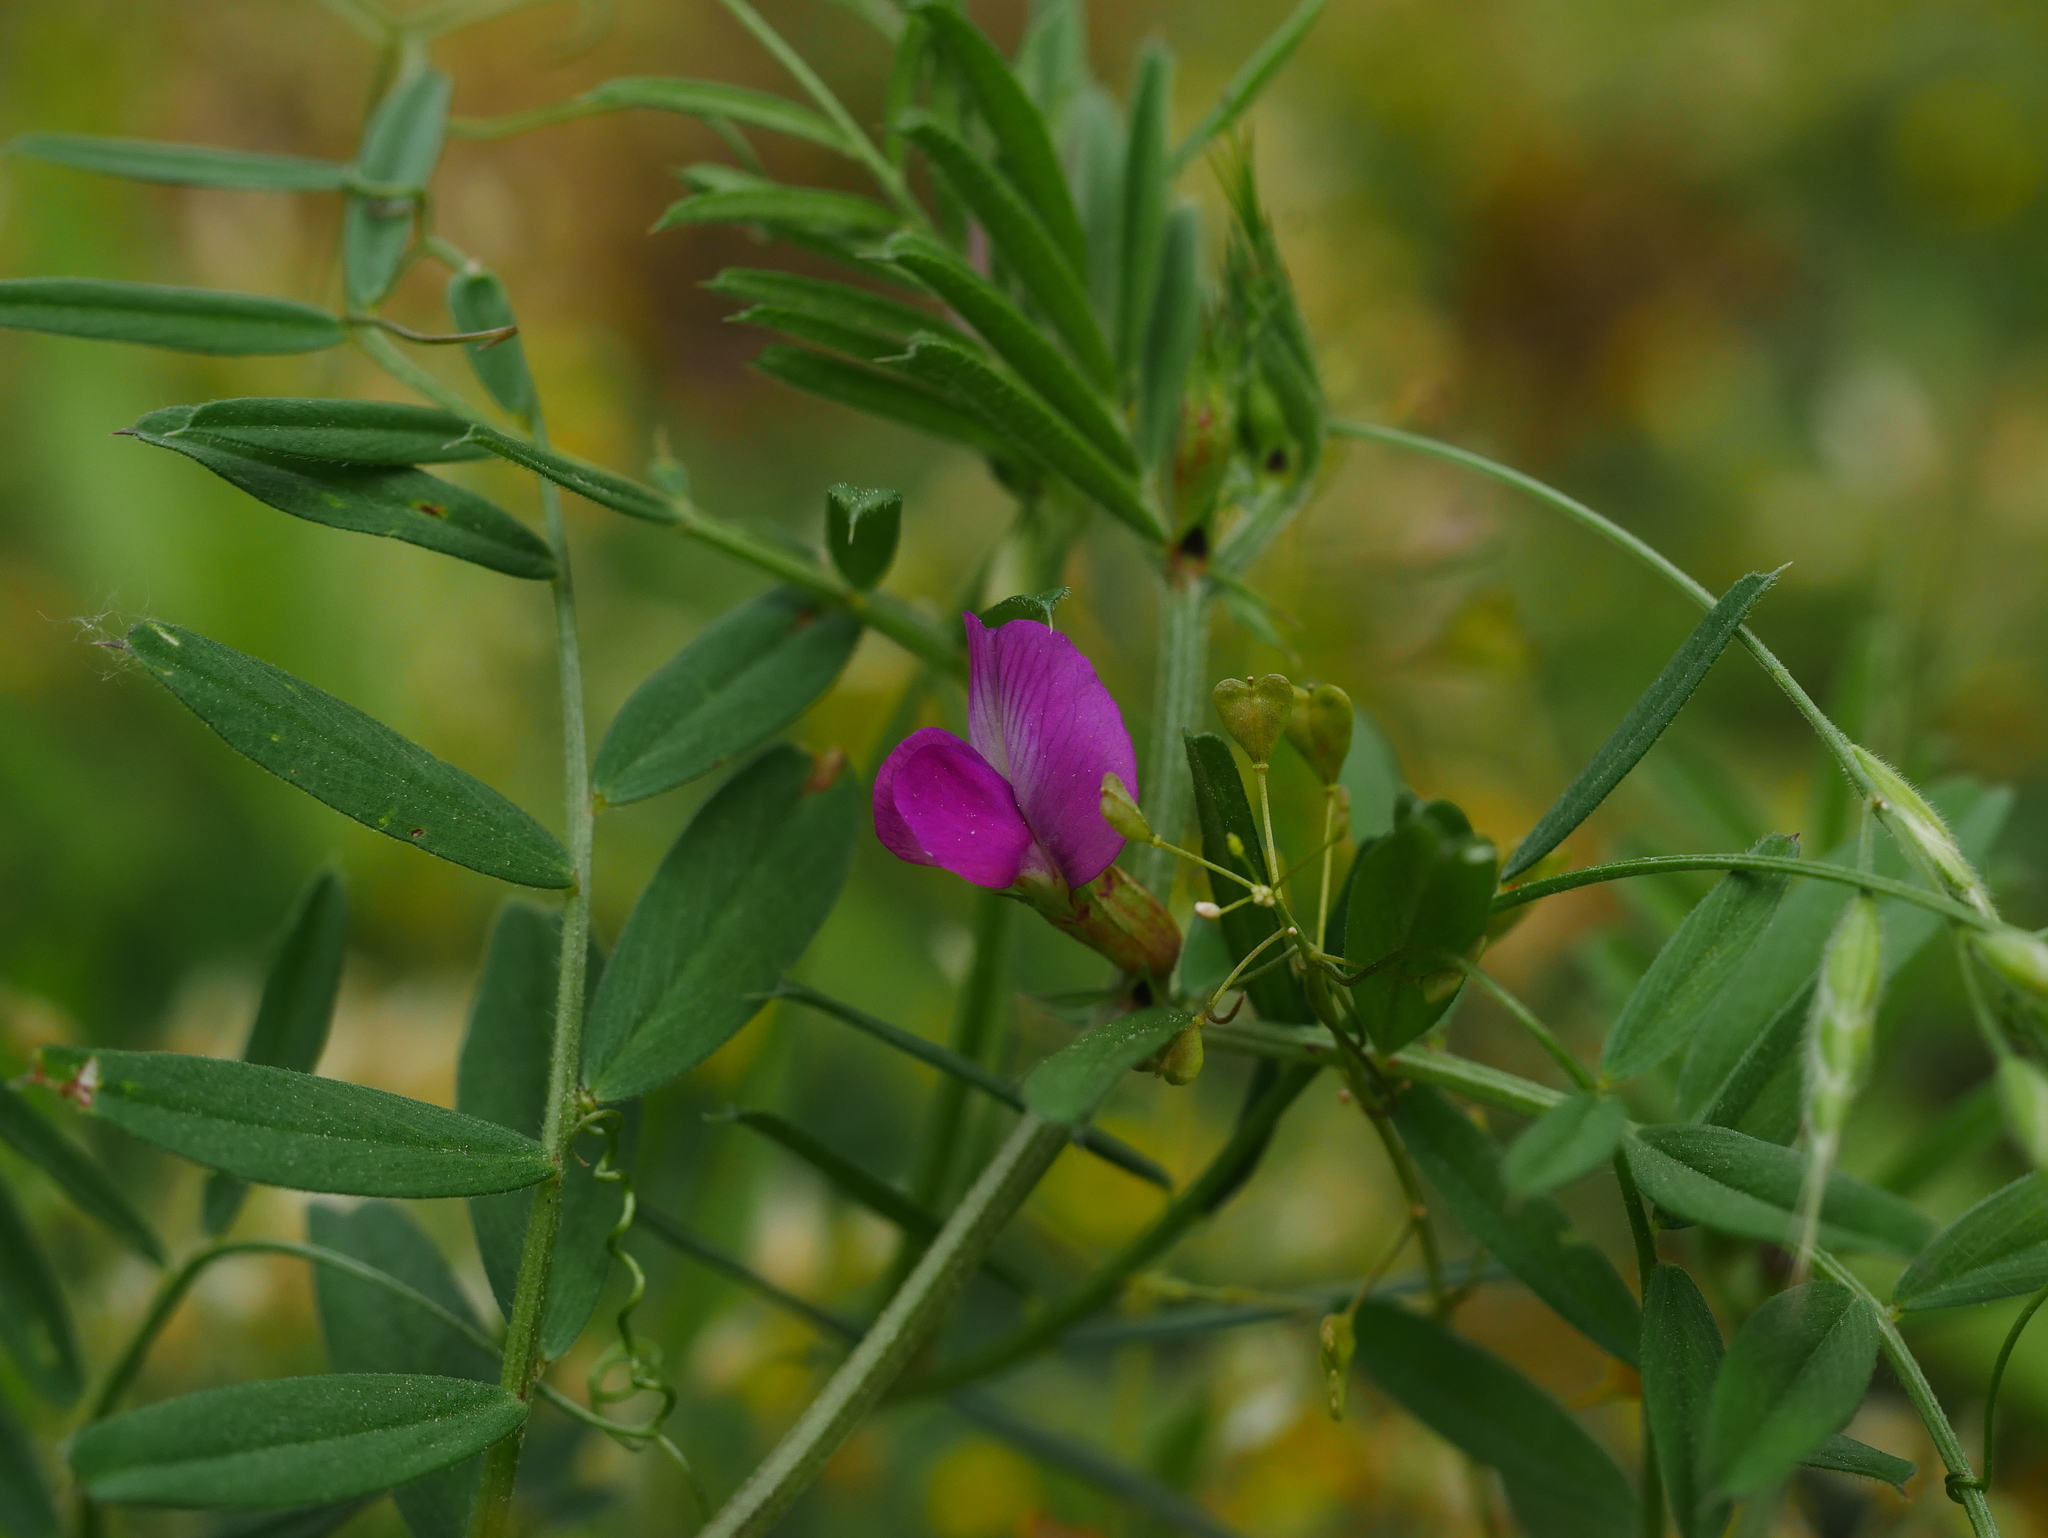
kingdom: Plantae
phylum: Tracheophyta
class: Magnoliopsida
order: Fabales
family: Fabaceae
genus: Vicia
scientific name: Vicia sativa
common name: Garden vetch
